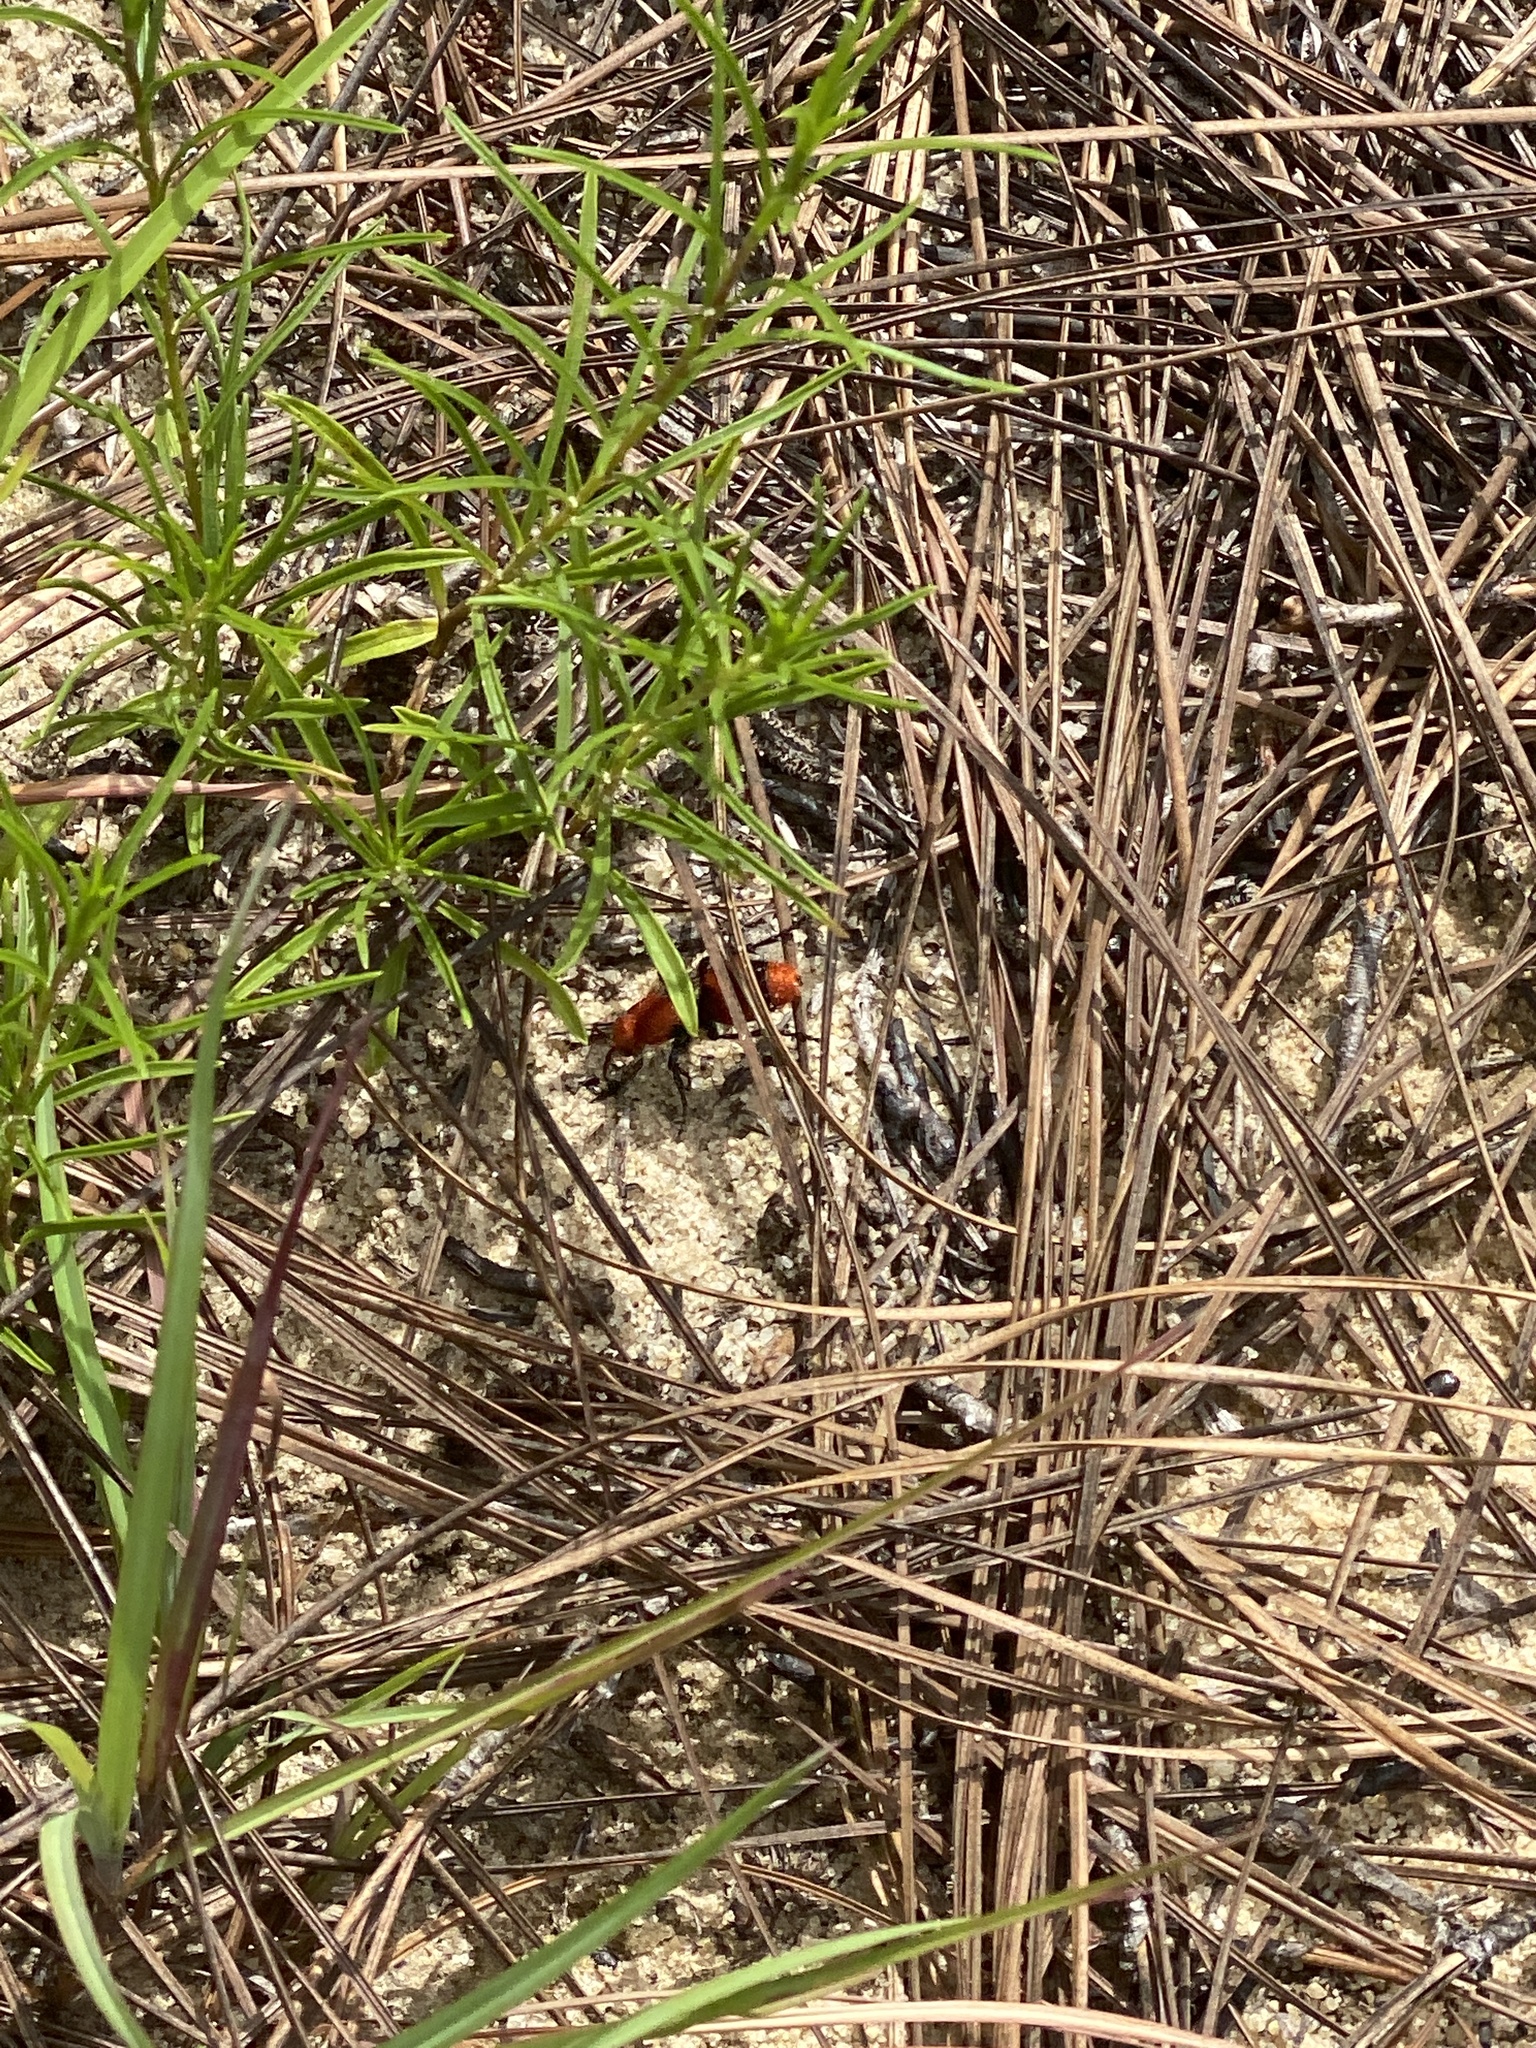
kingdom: Animalia
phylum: Arthropoda
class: Insecta
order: Hymenoptera
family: Mutillidae
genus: Dasymutilla
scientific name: Dasymutilla occidentalis
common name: Common eastern velvet ant
